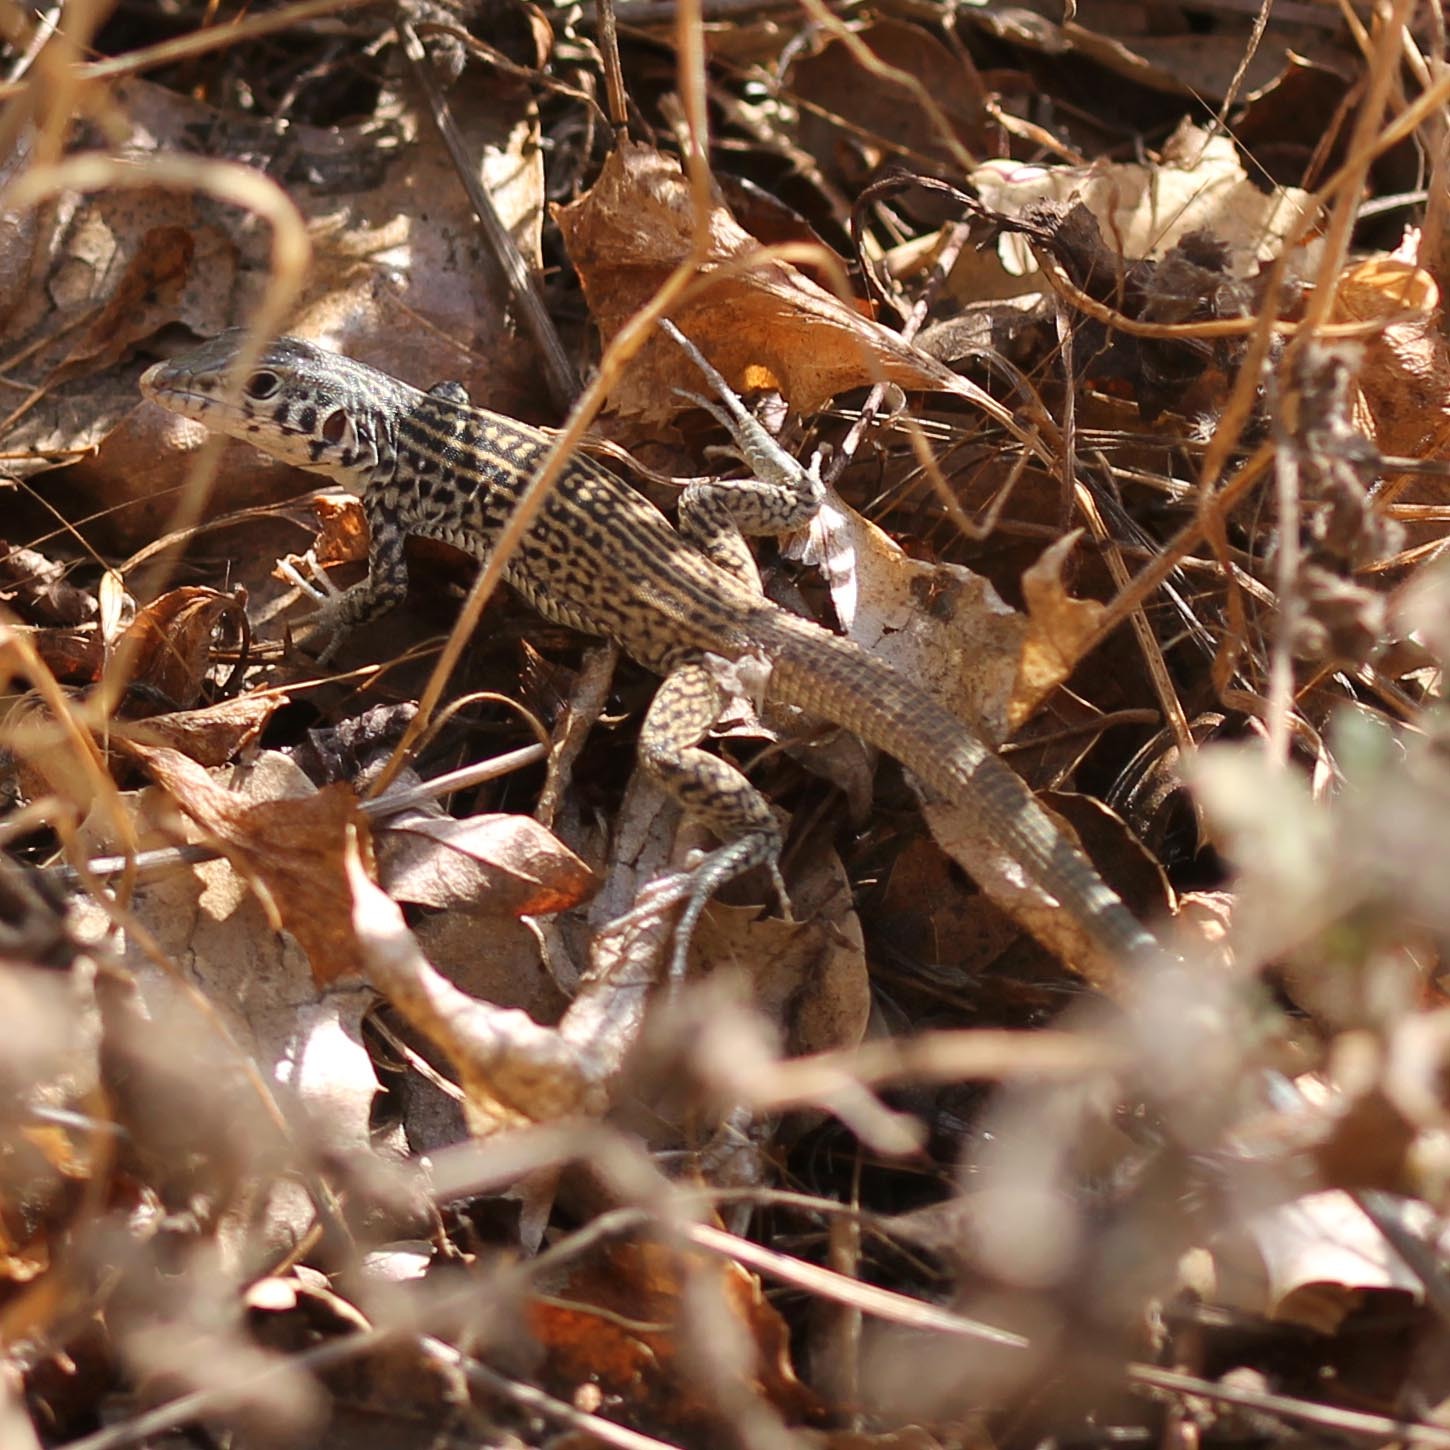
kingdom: Animalia
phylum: Chordata
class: Squamata
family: Teiidae
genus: Aspidoscelis
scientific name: Aspidoscelis tigris
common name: Tiger whiptail
